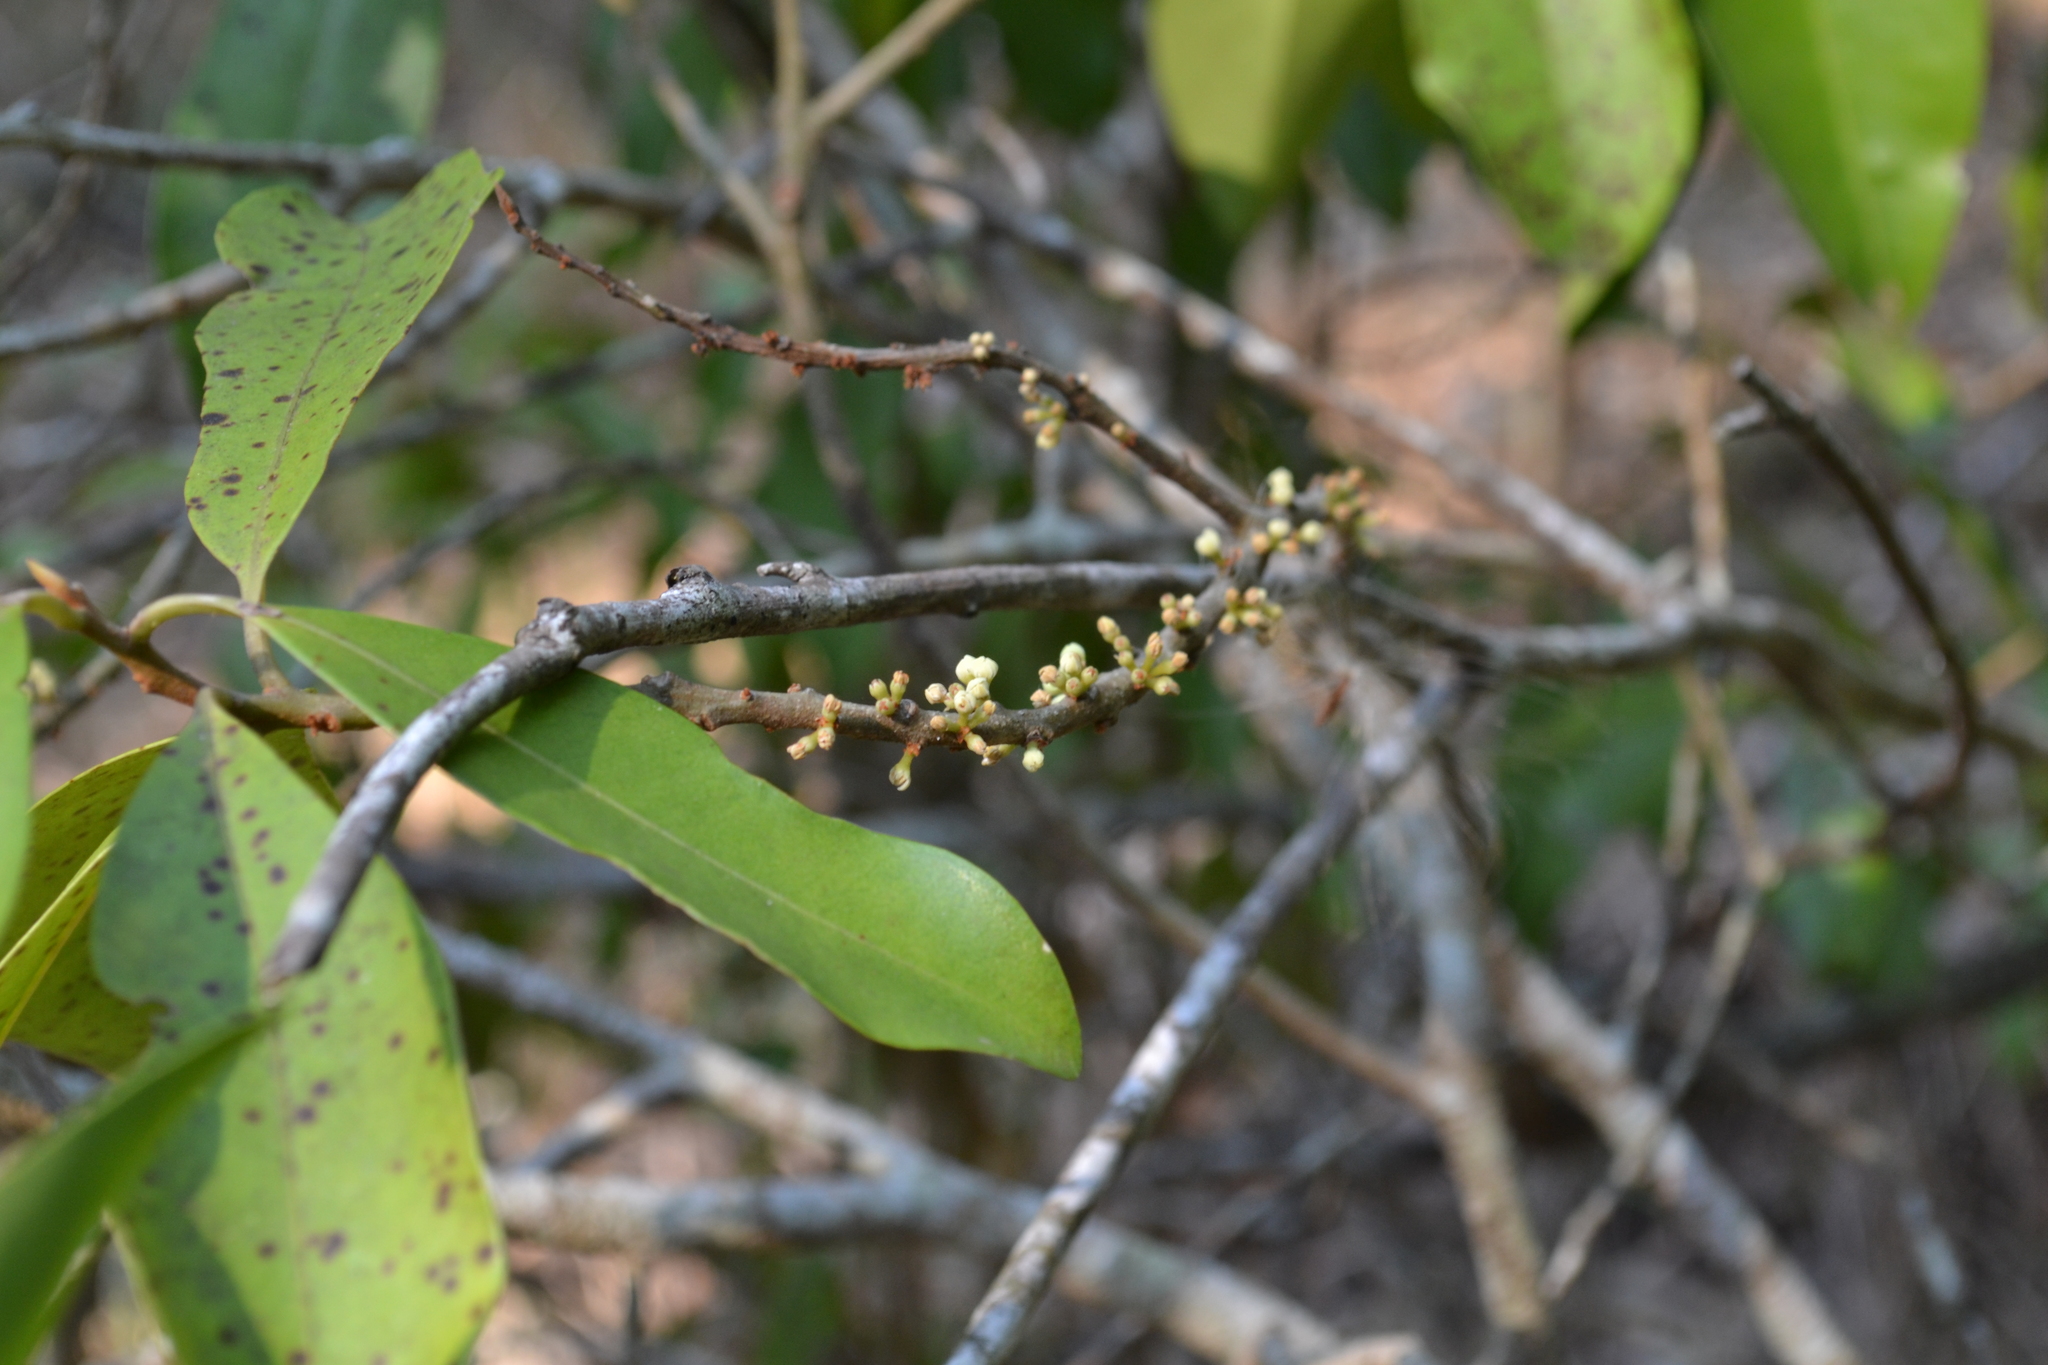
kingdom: Plantae
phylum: Tracheophyta
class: Magnoliopsida
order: Ericales
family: Primulaceae
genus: Myrsine
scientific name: Myrsine howittiana
